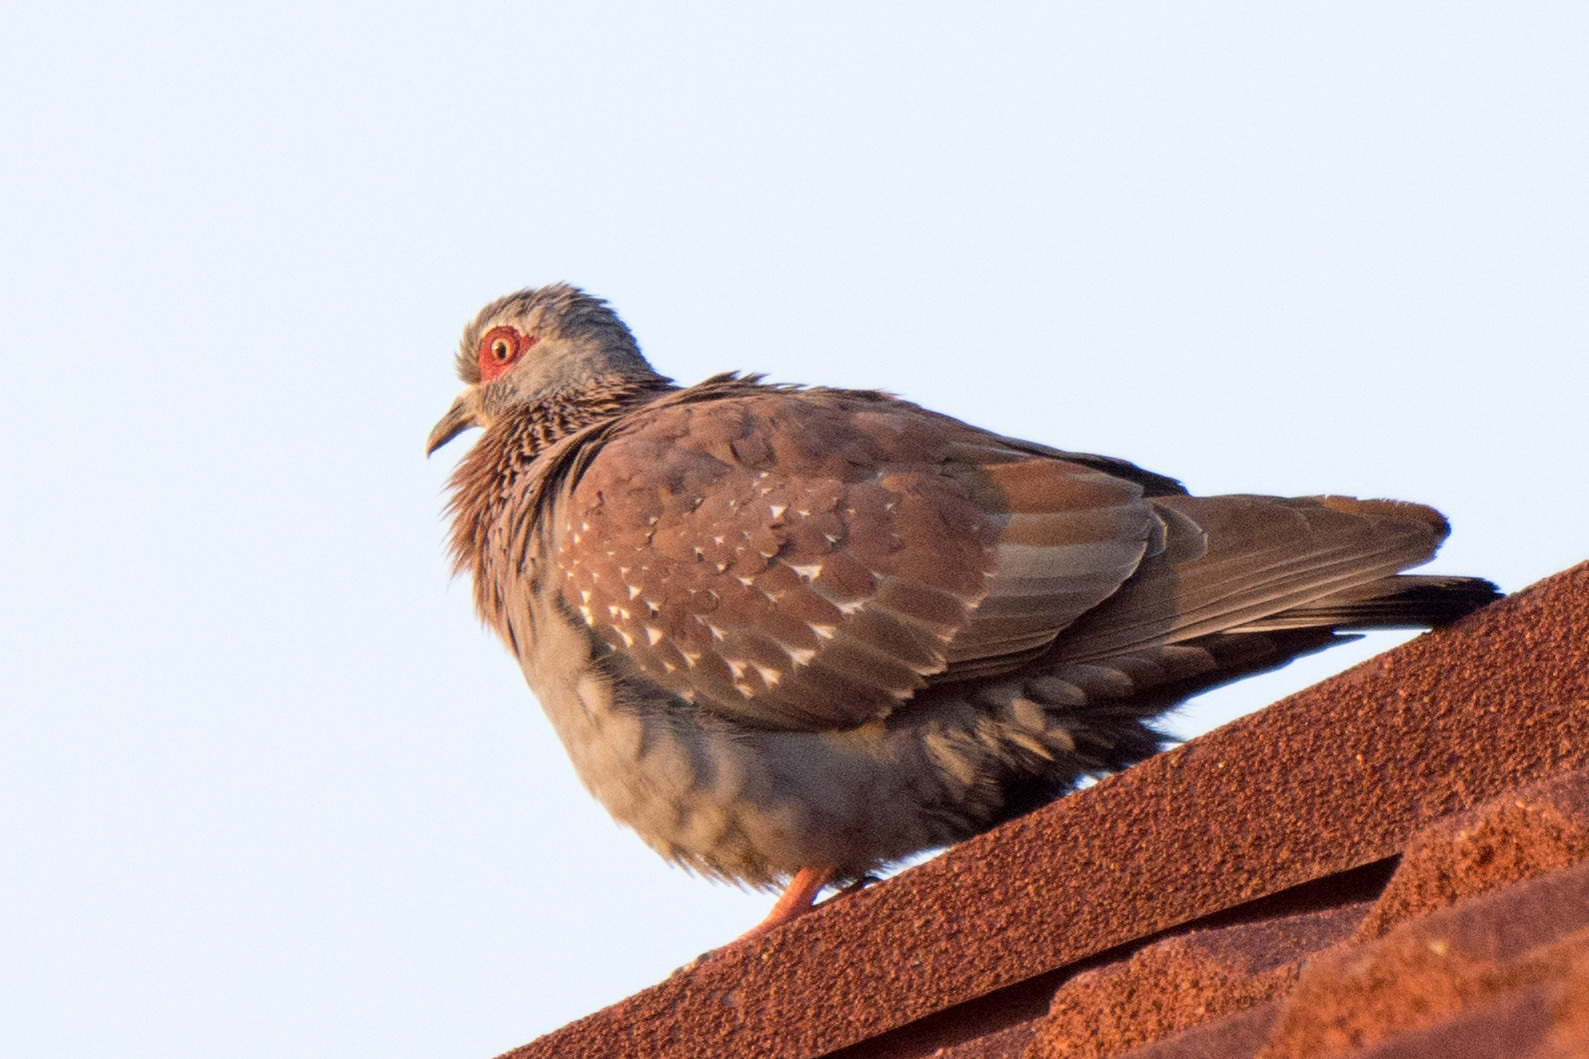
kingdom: Animalia
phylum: Chordata
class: Aves
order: Columbiformes
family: Columbidae
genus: Columba
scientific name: Columba guinea
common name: Speckled pigeon
